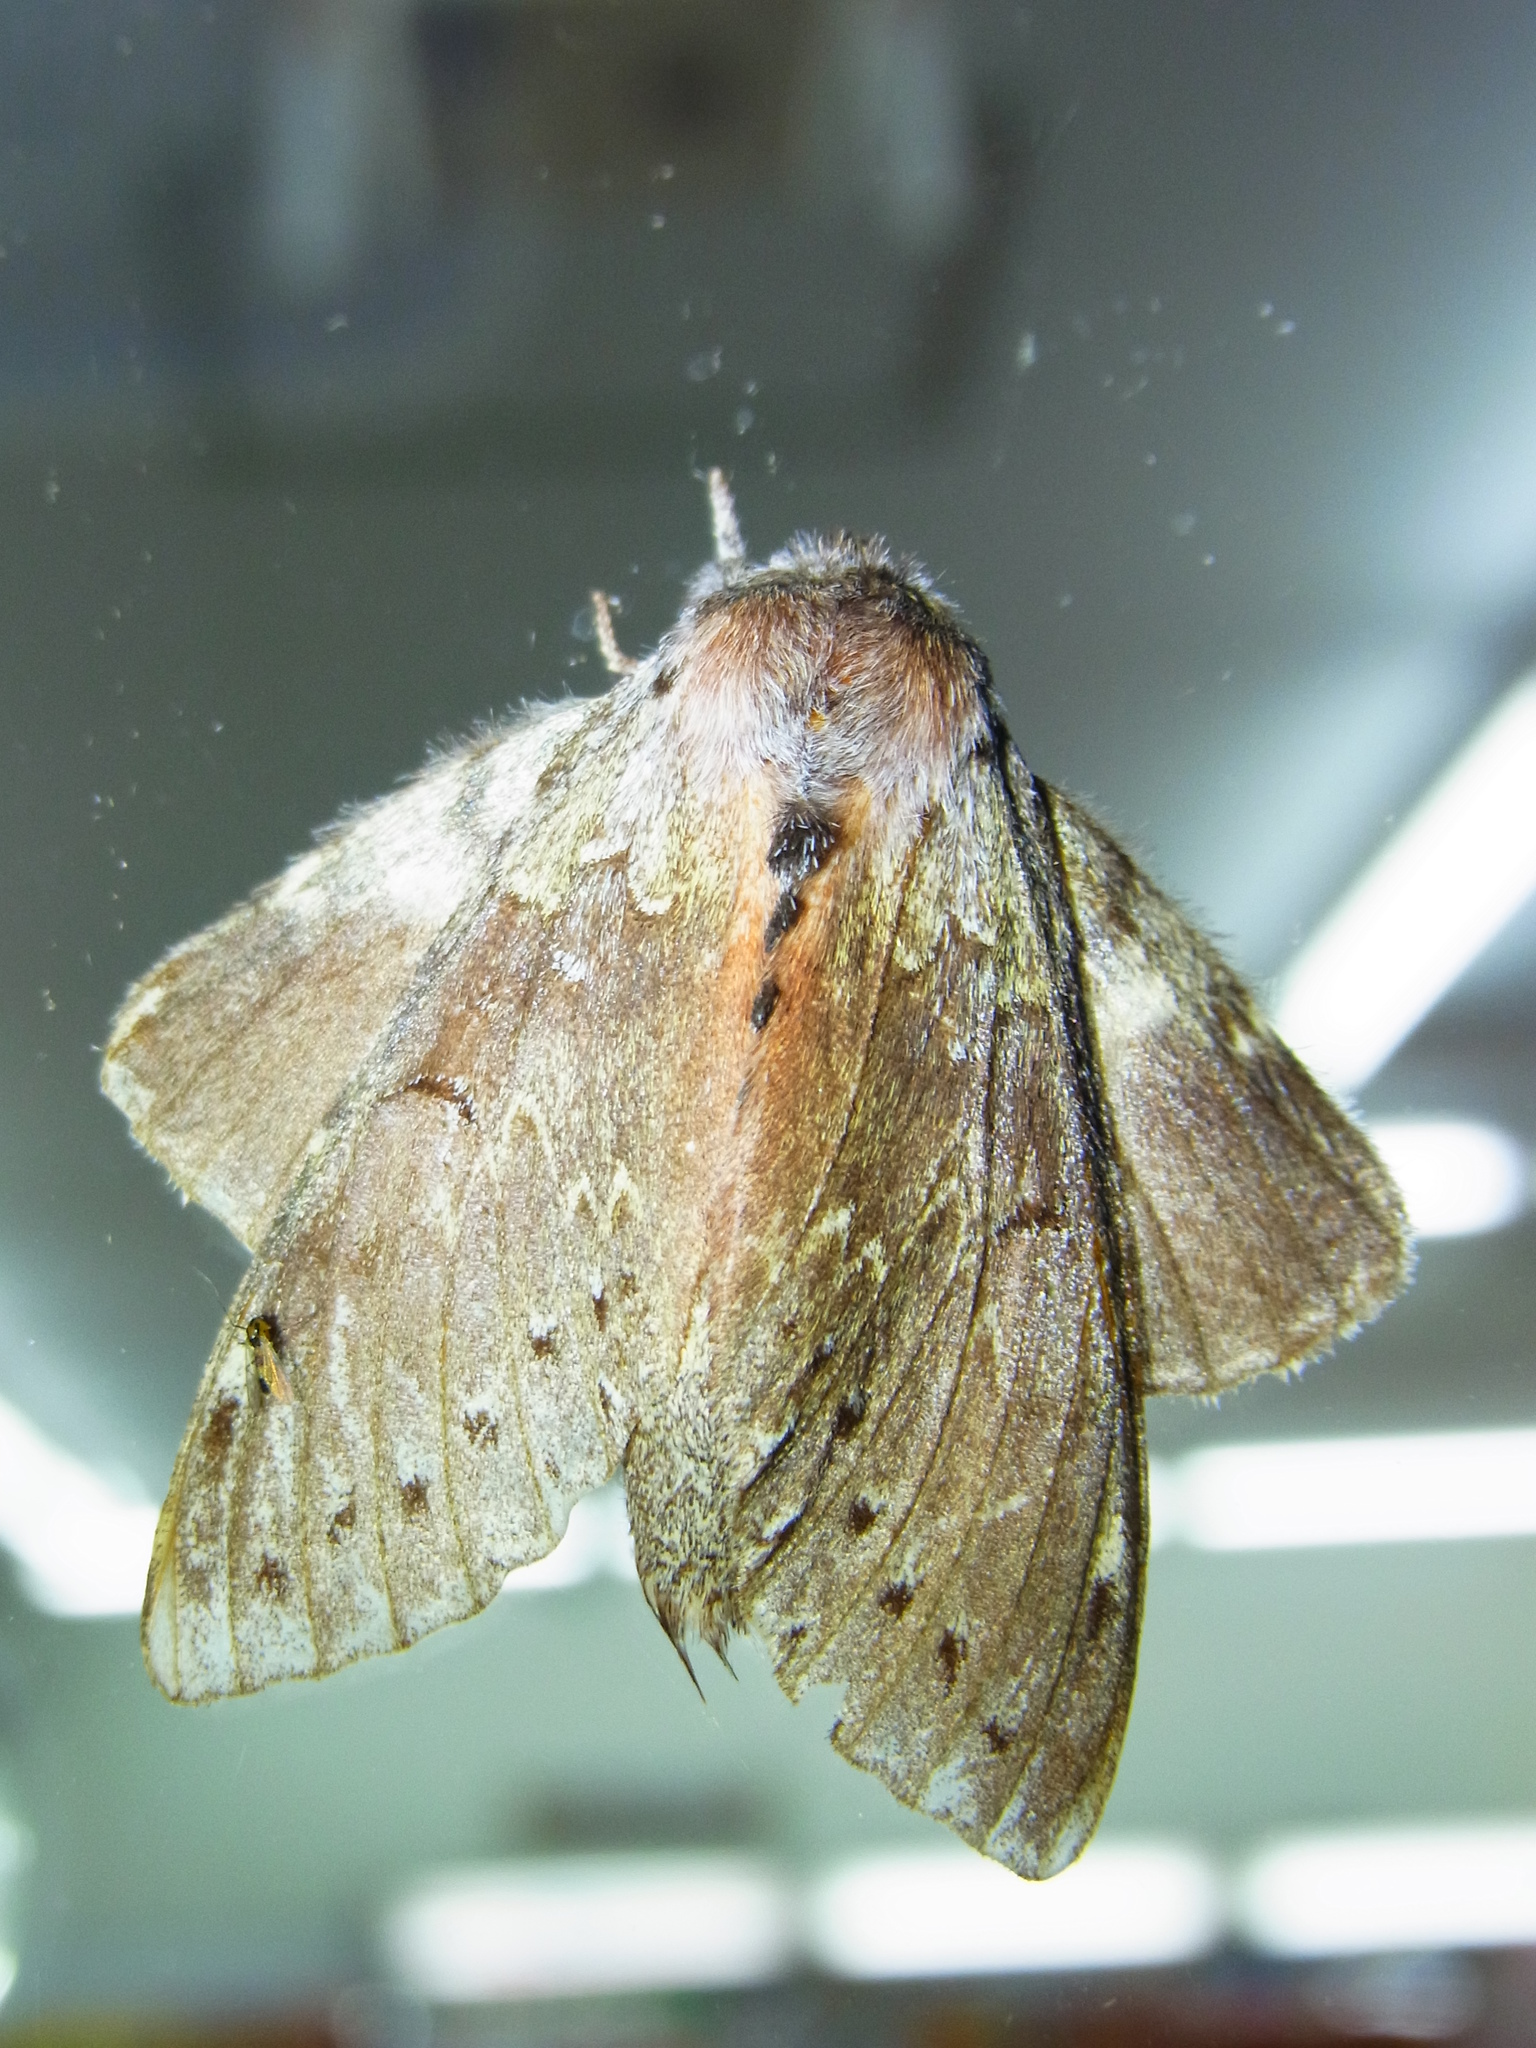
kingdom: Animalia
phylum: Arthropoda
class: Insecta
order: Lepidoptera
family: Notodontidae
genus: Stauropus
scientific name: Stauropus fagi
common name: Lobster moth
